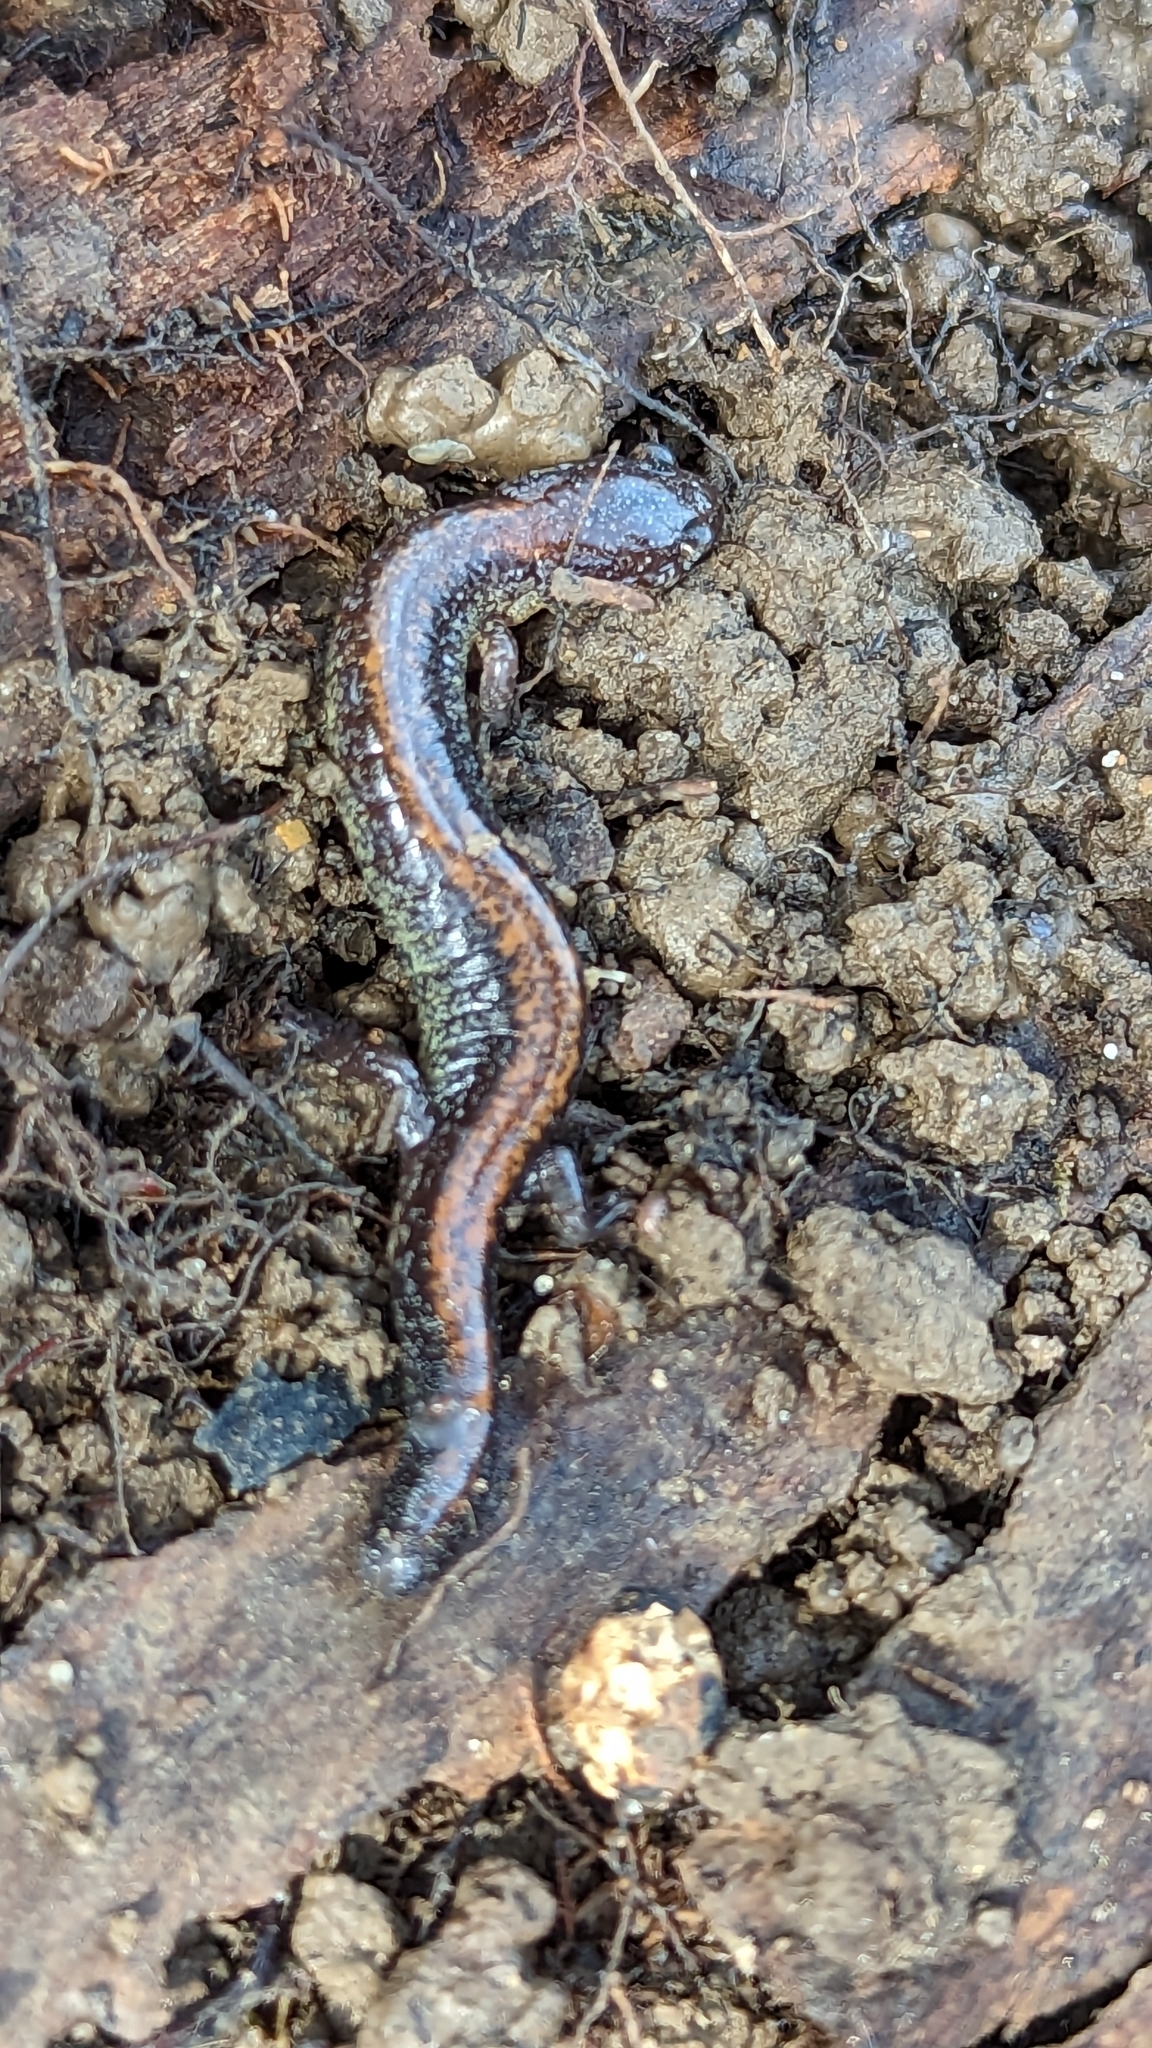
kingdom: Animalia
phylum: Chordata
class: Amphibia
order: Caudata
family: Plethodontidae
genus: Plethodon
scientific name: Plethodon cinereus
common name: Redback salamander
